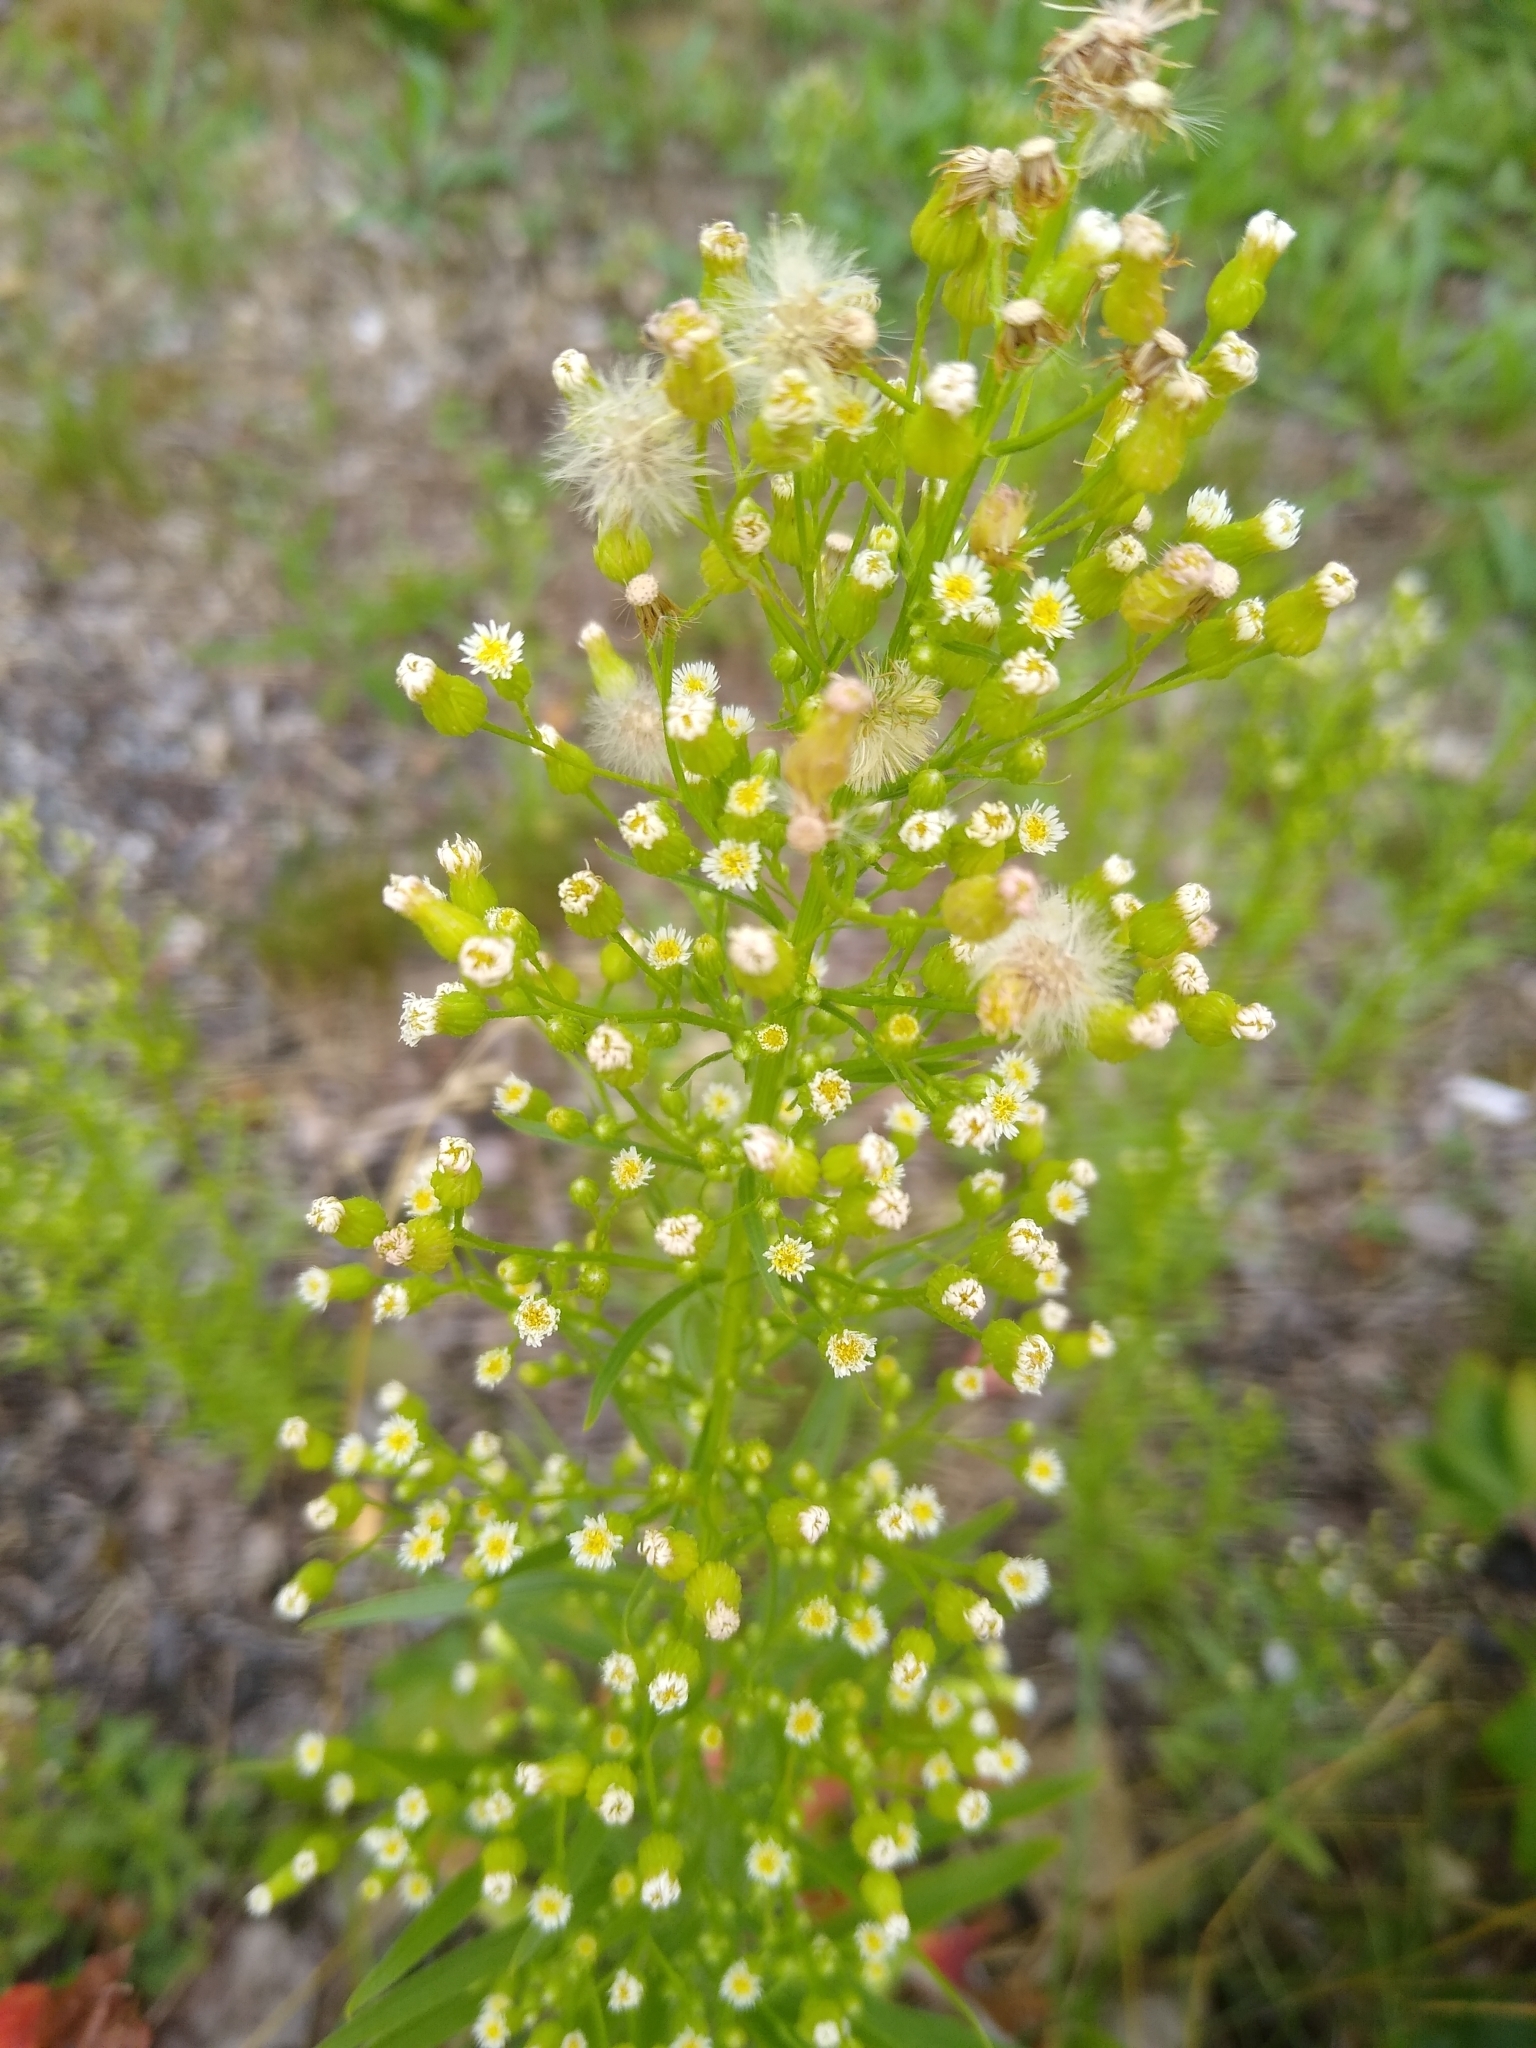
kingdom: Plantae
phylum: Tracheophyta
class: Magnoliopsida
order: Asterales
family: Asteraceae
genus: Erigeron
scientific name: Erigeron canadensis
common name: Canadian fleabane
